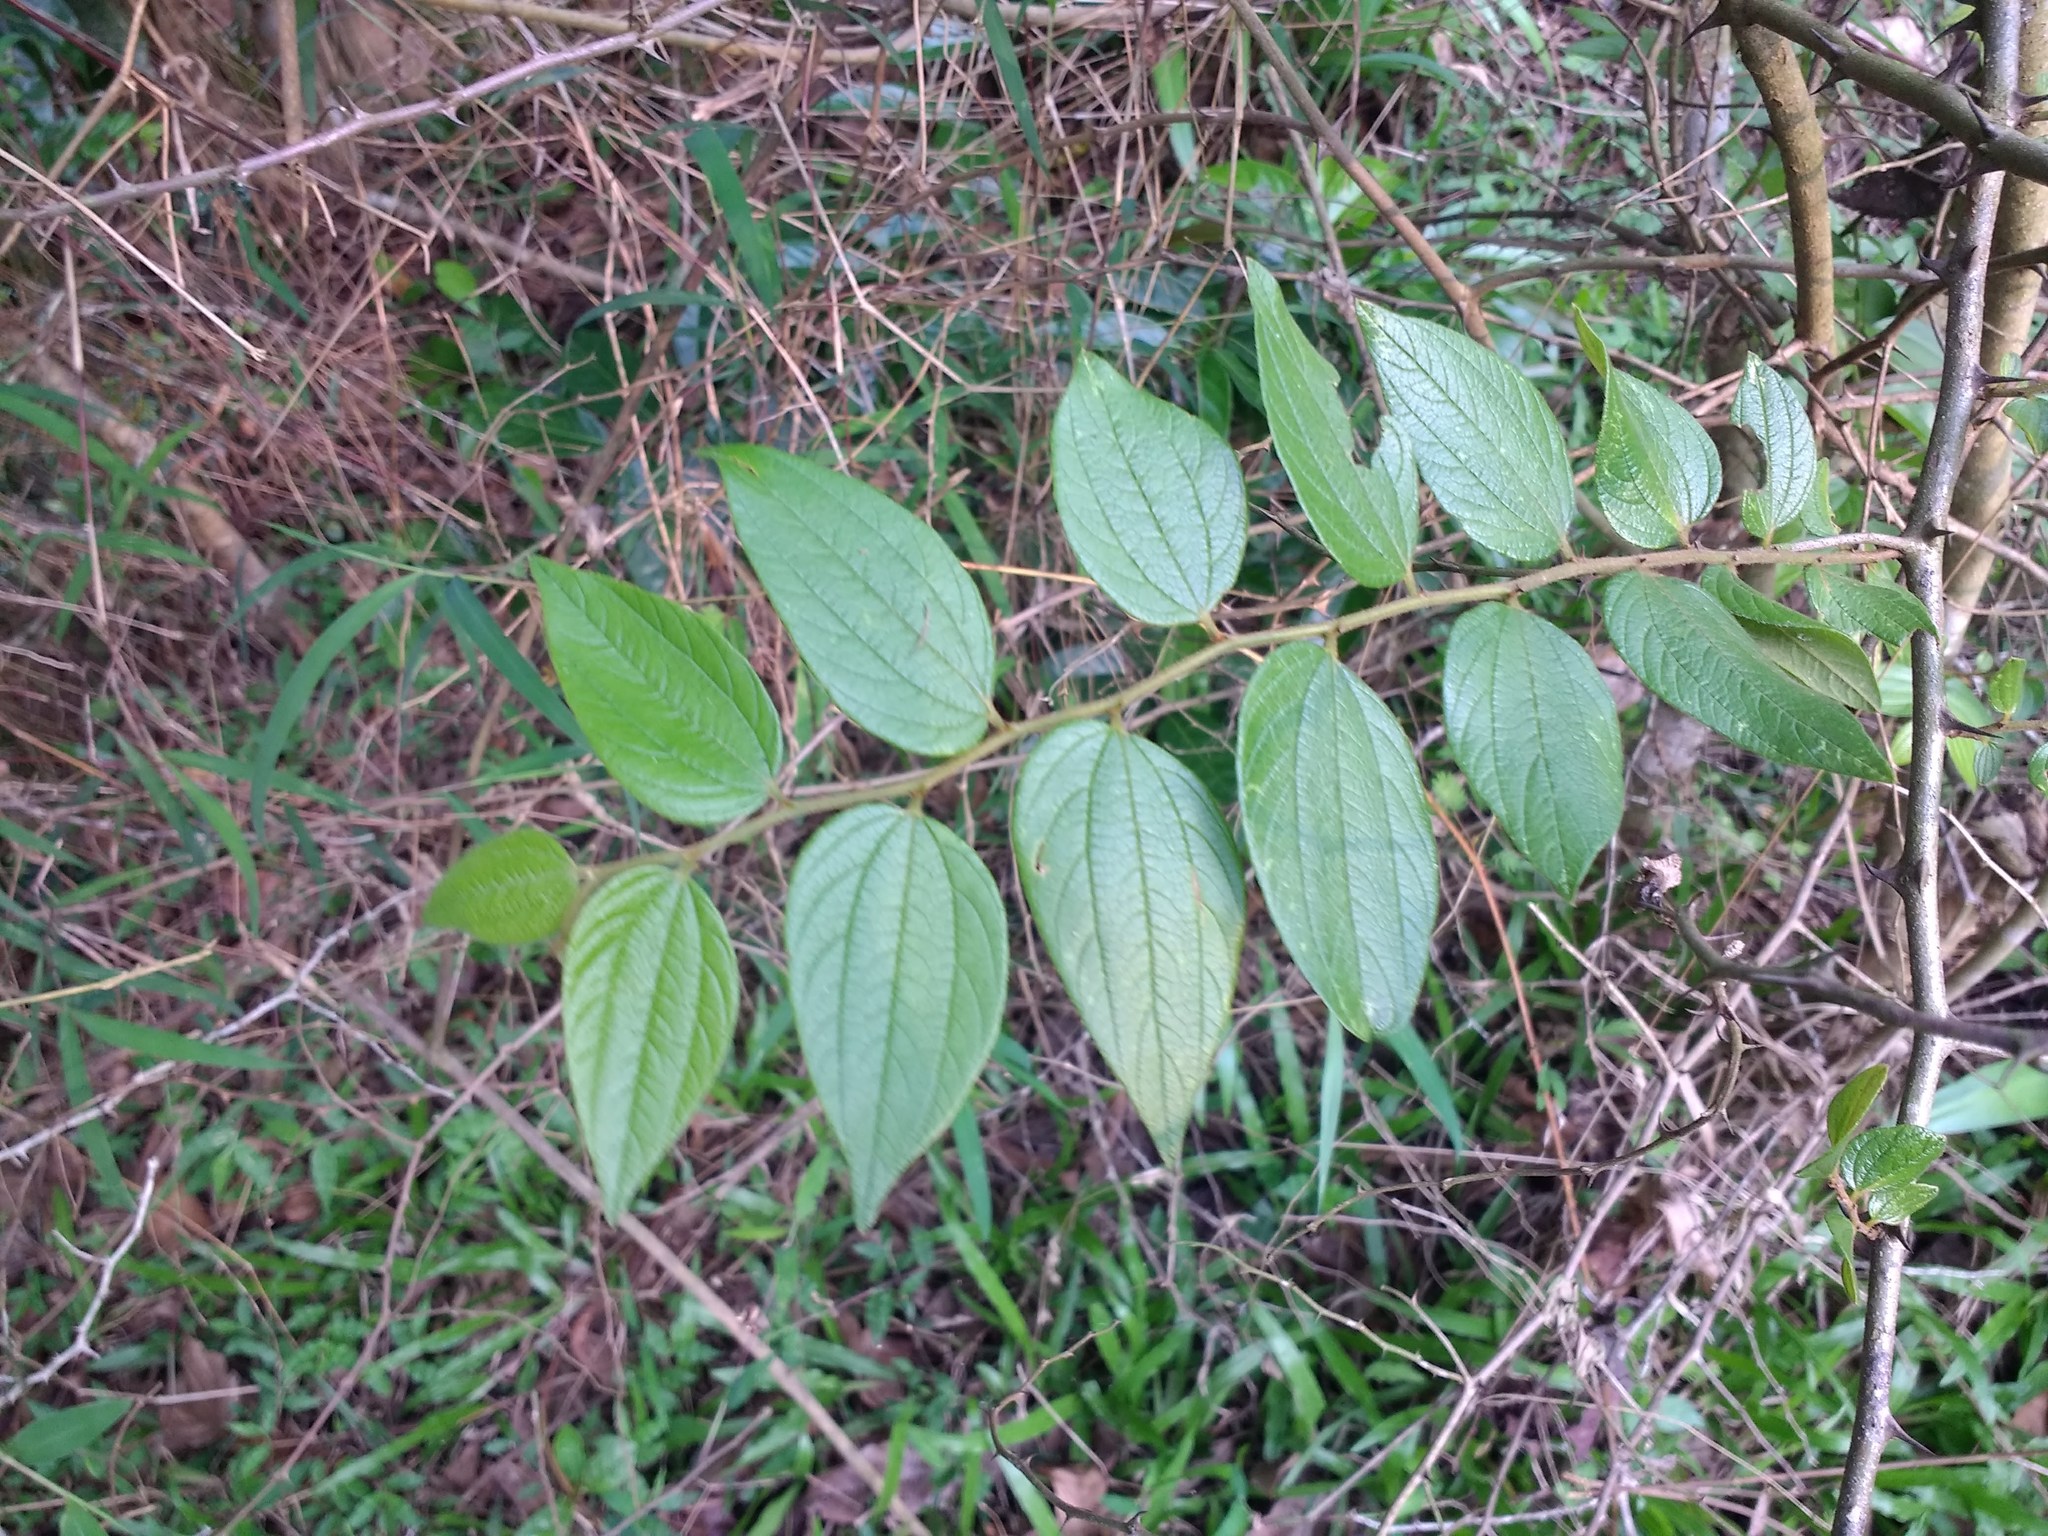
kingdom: Plantae
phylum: Tracheophyta
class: Magnoliopsida
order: Rosales
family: Rhamnaceae
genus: Ziziphus
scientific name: Ziziphus oenopolia
